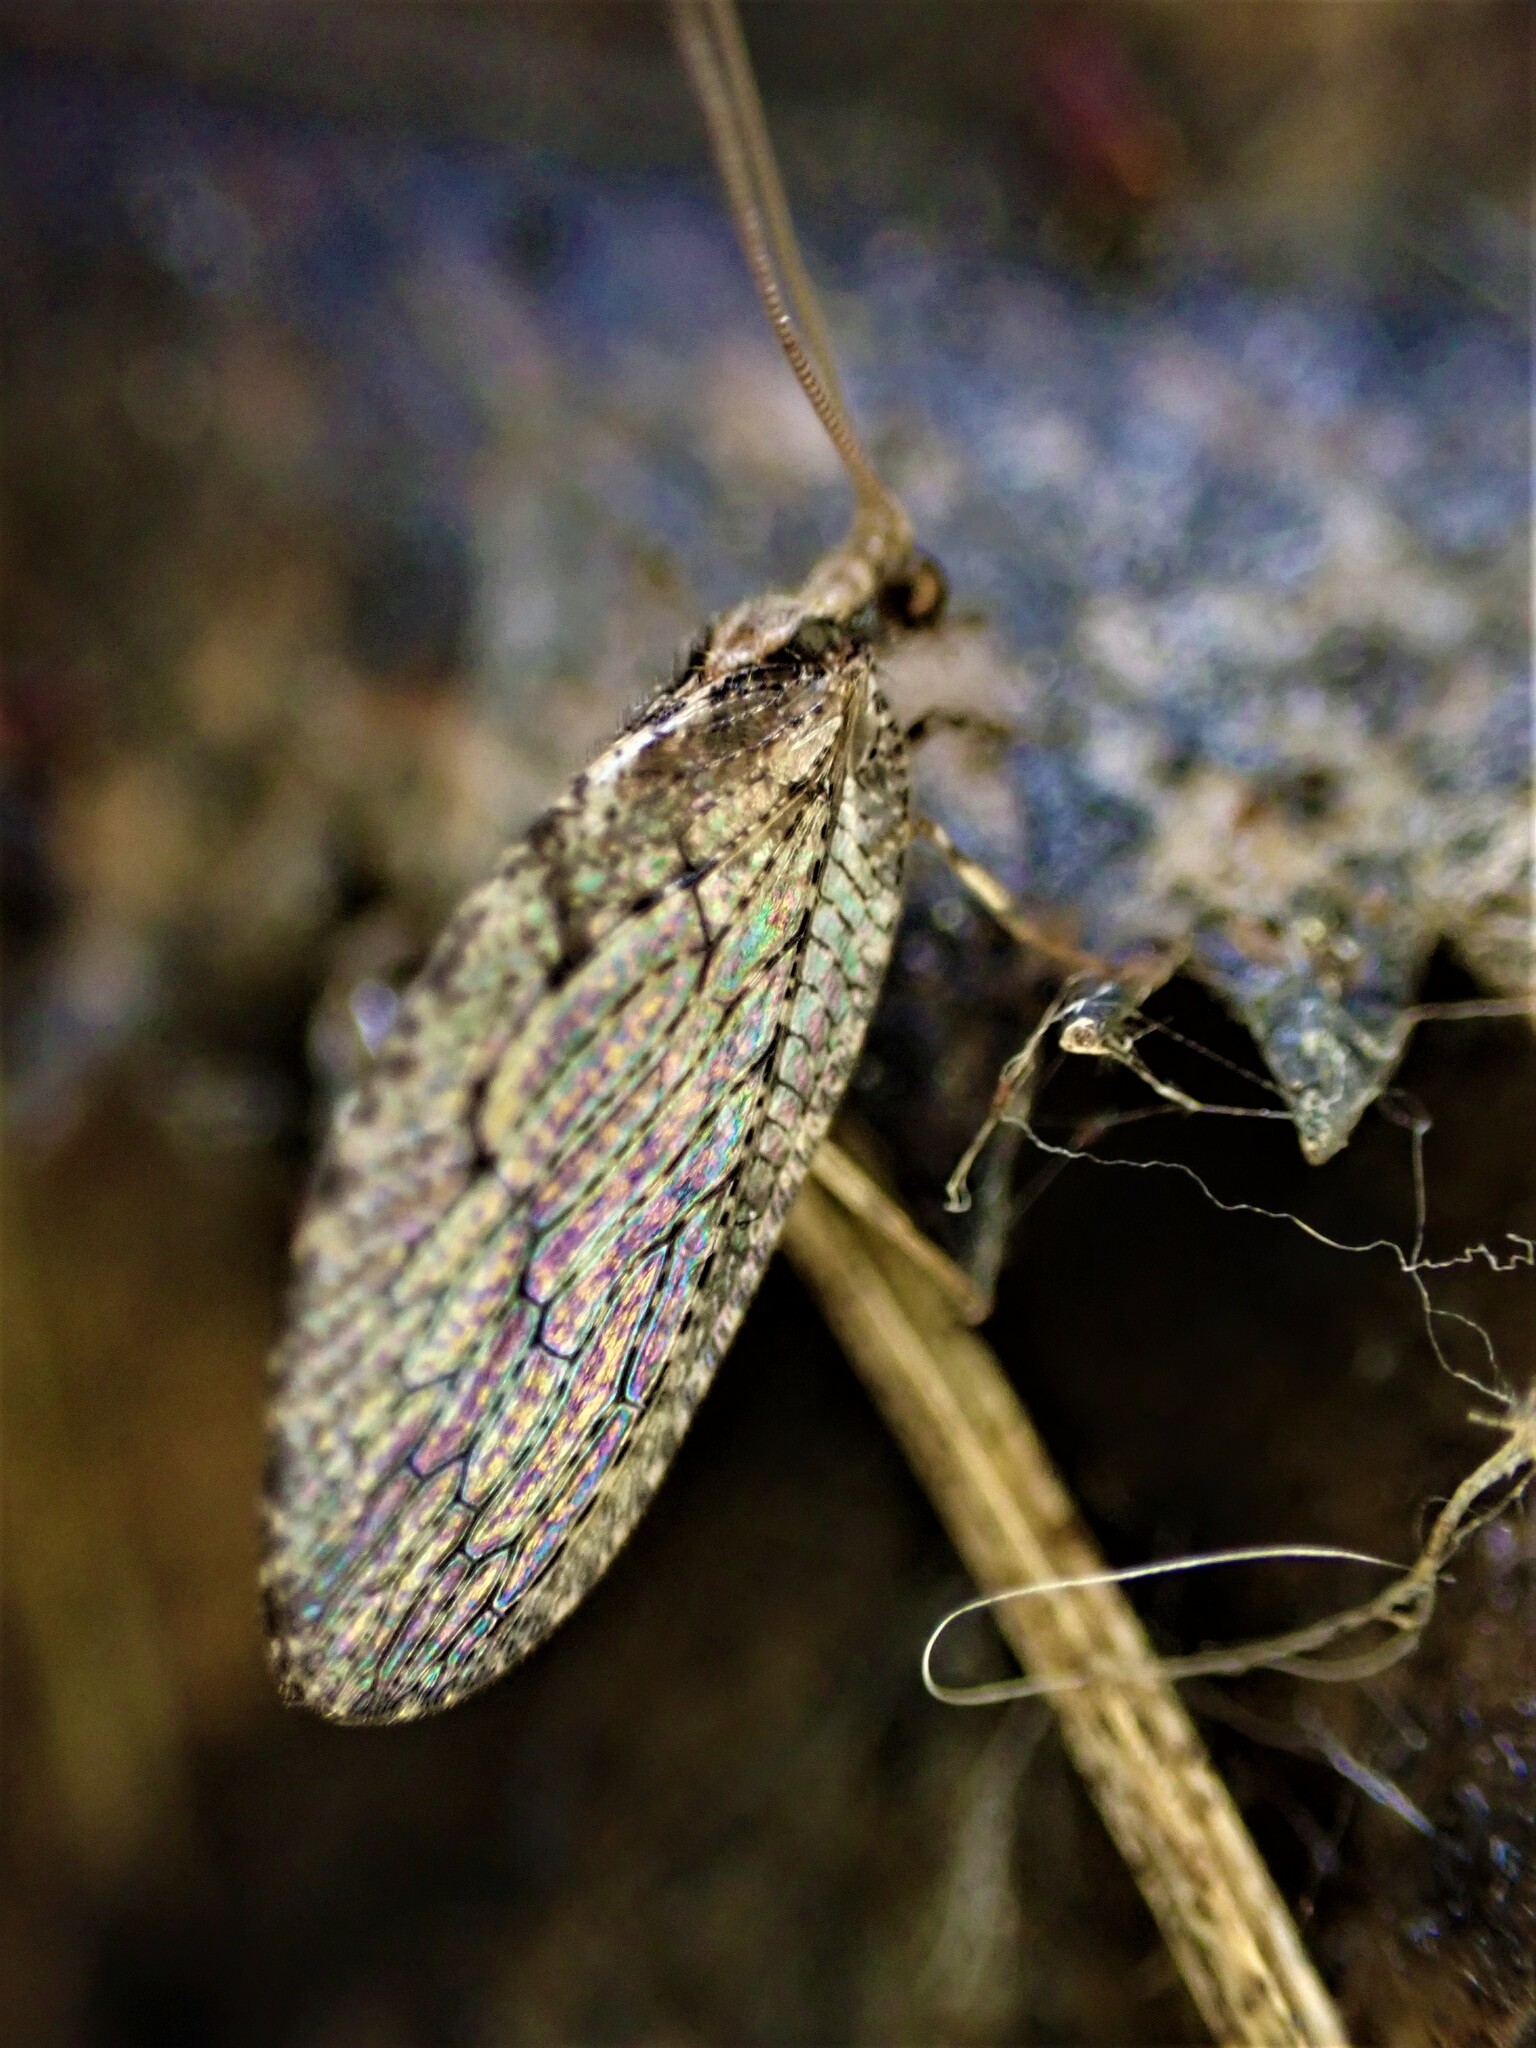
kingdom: Animalia
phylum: Arthropoda
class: Insecta
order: Neuroptera
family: Hemerobiidae
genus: Wesmaelius
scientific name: Wesmaelius subnebulosus
